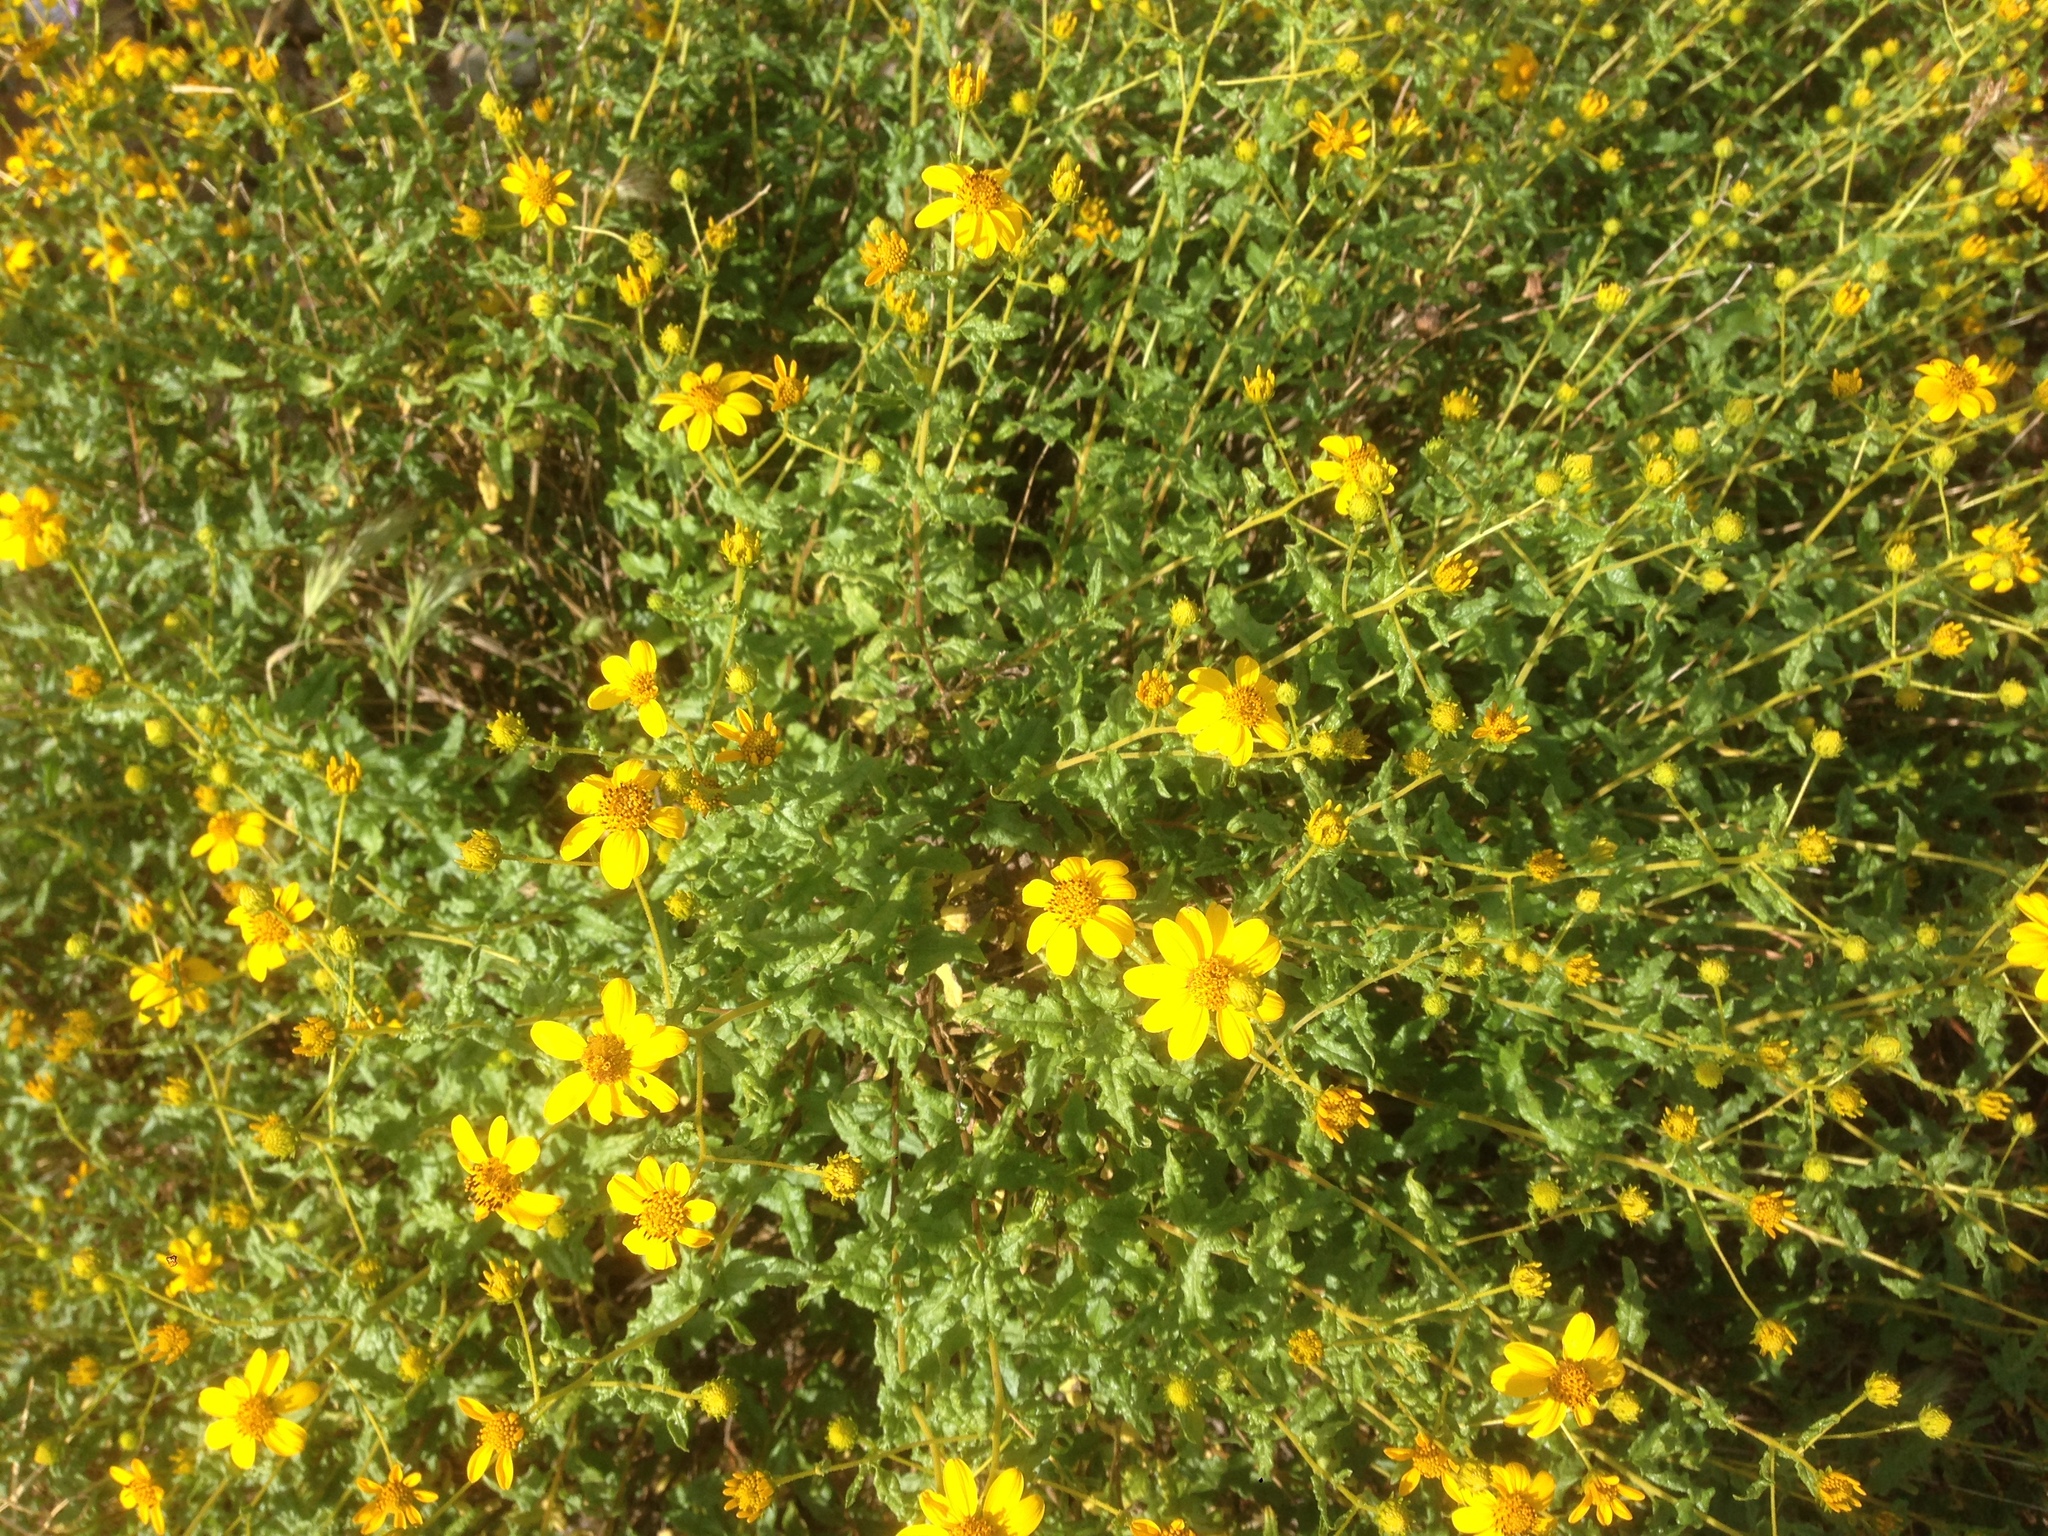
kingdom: Plantae
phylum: Tracheophyta
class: Magnoliopsida
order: Asterales
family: Asteraceae
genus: Bahiopsis
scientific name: Bahiopsis laciniata
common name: San diego county viguiera
